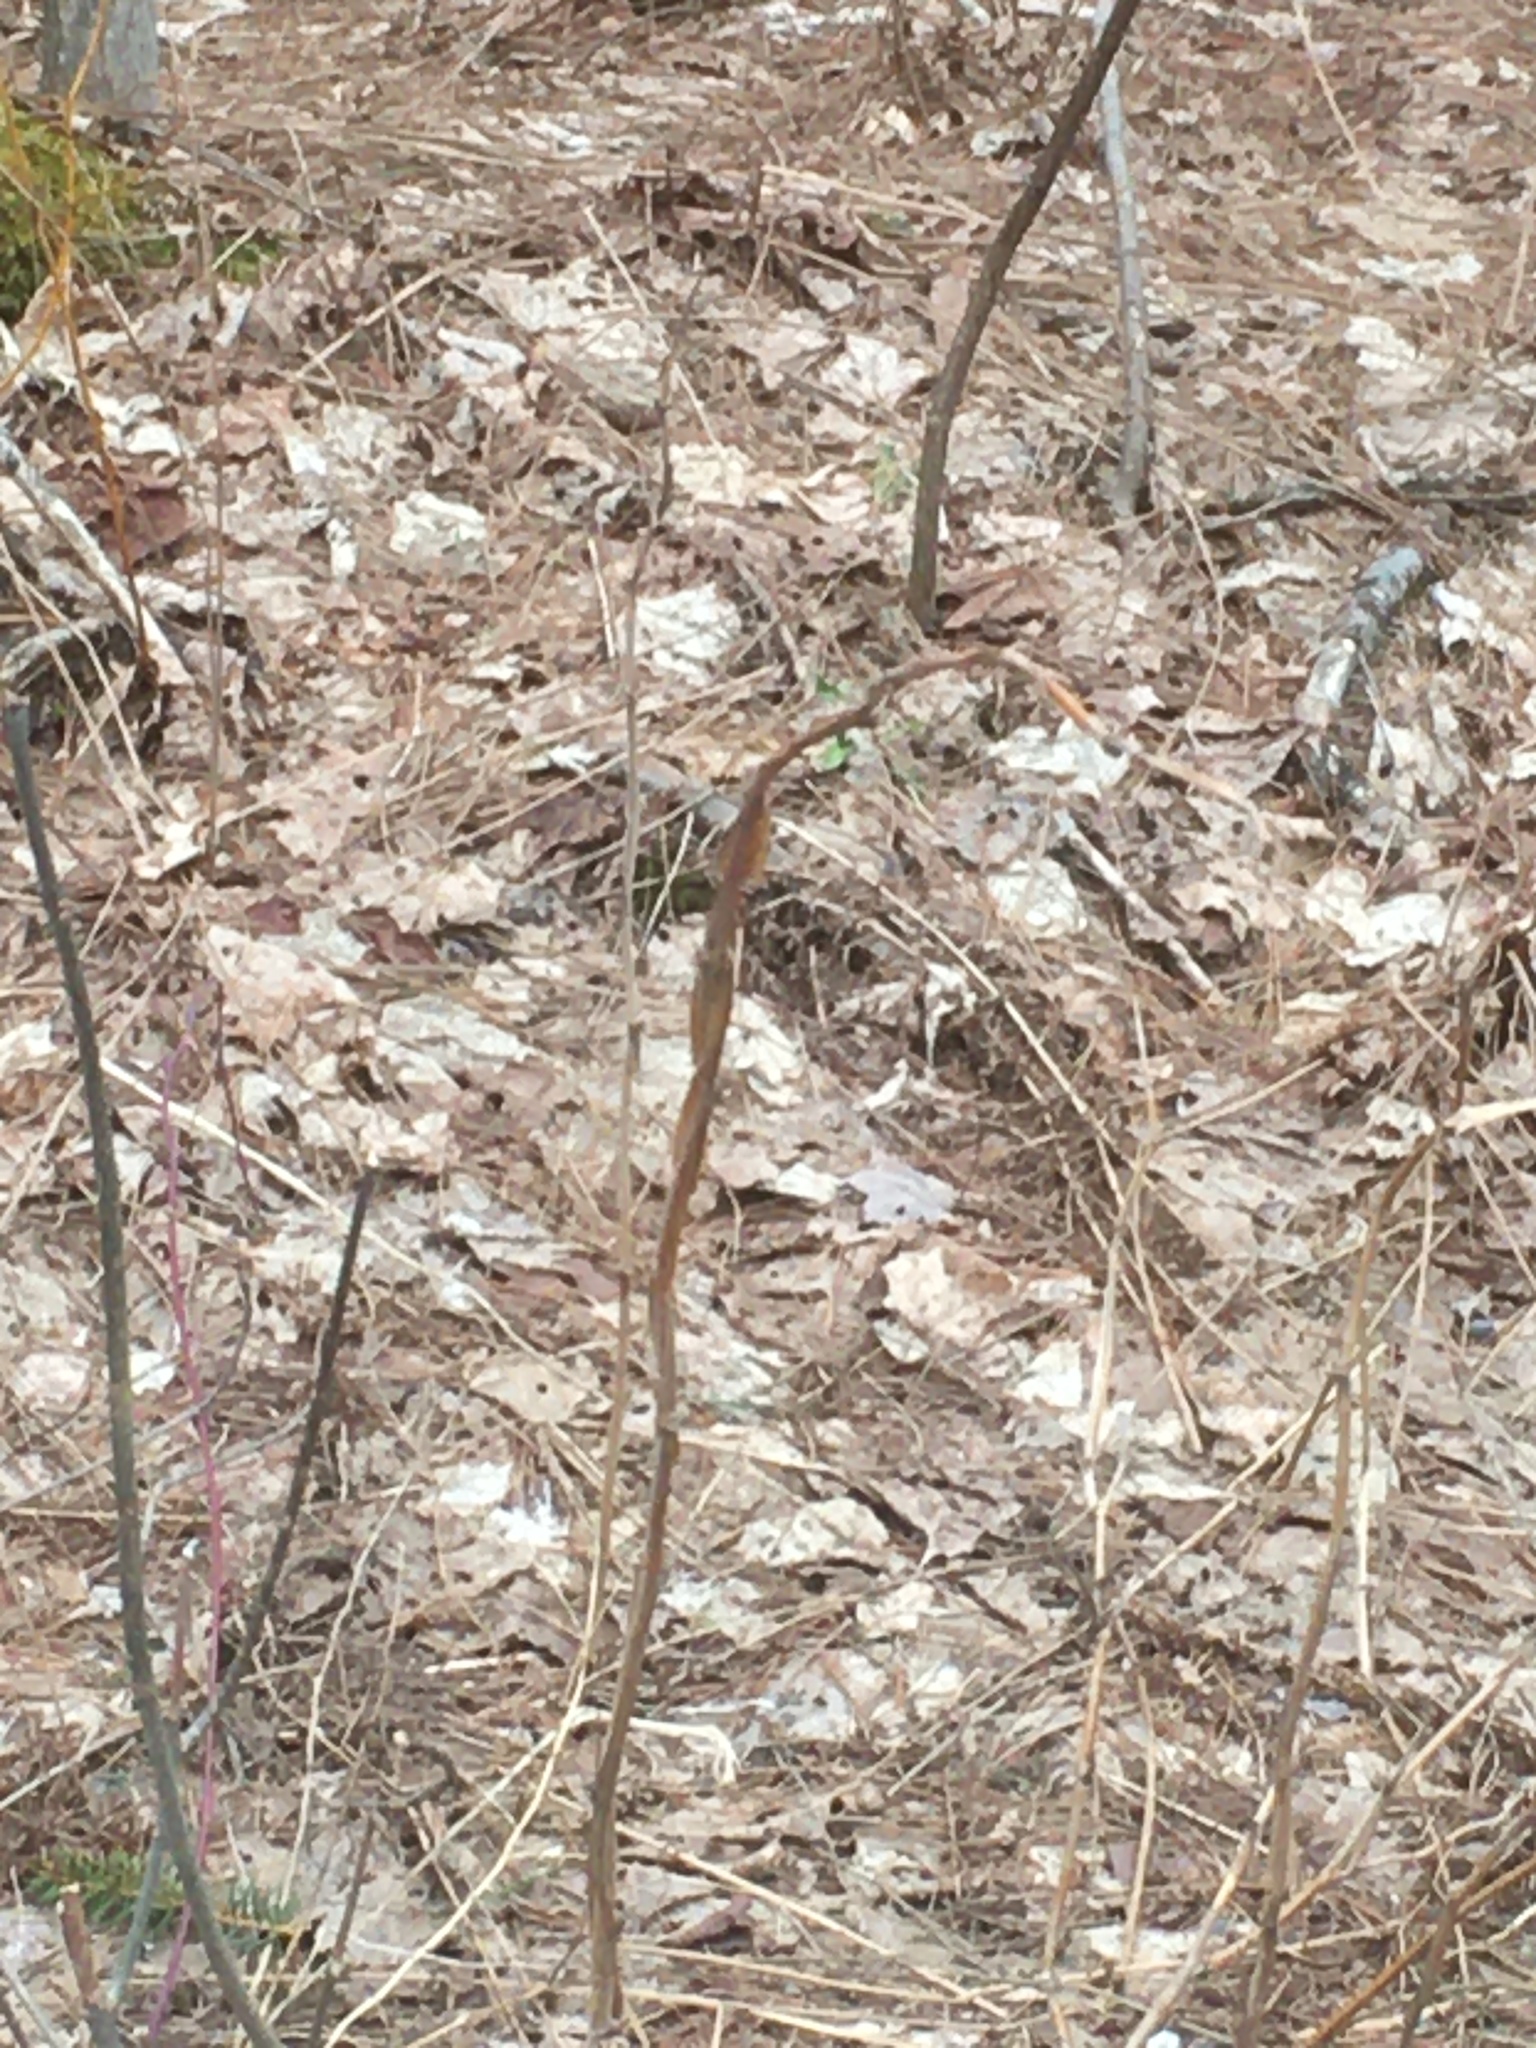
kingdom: Plantae
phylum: Tracheophyta
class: Magnoliopsida
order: Rosales
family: Rosaceae
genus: Rubus
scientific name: Rubus odoratus
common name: Purple-flowered raspberry
